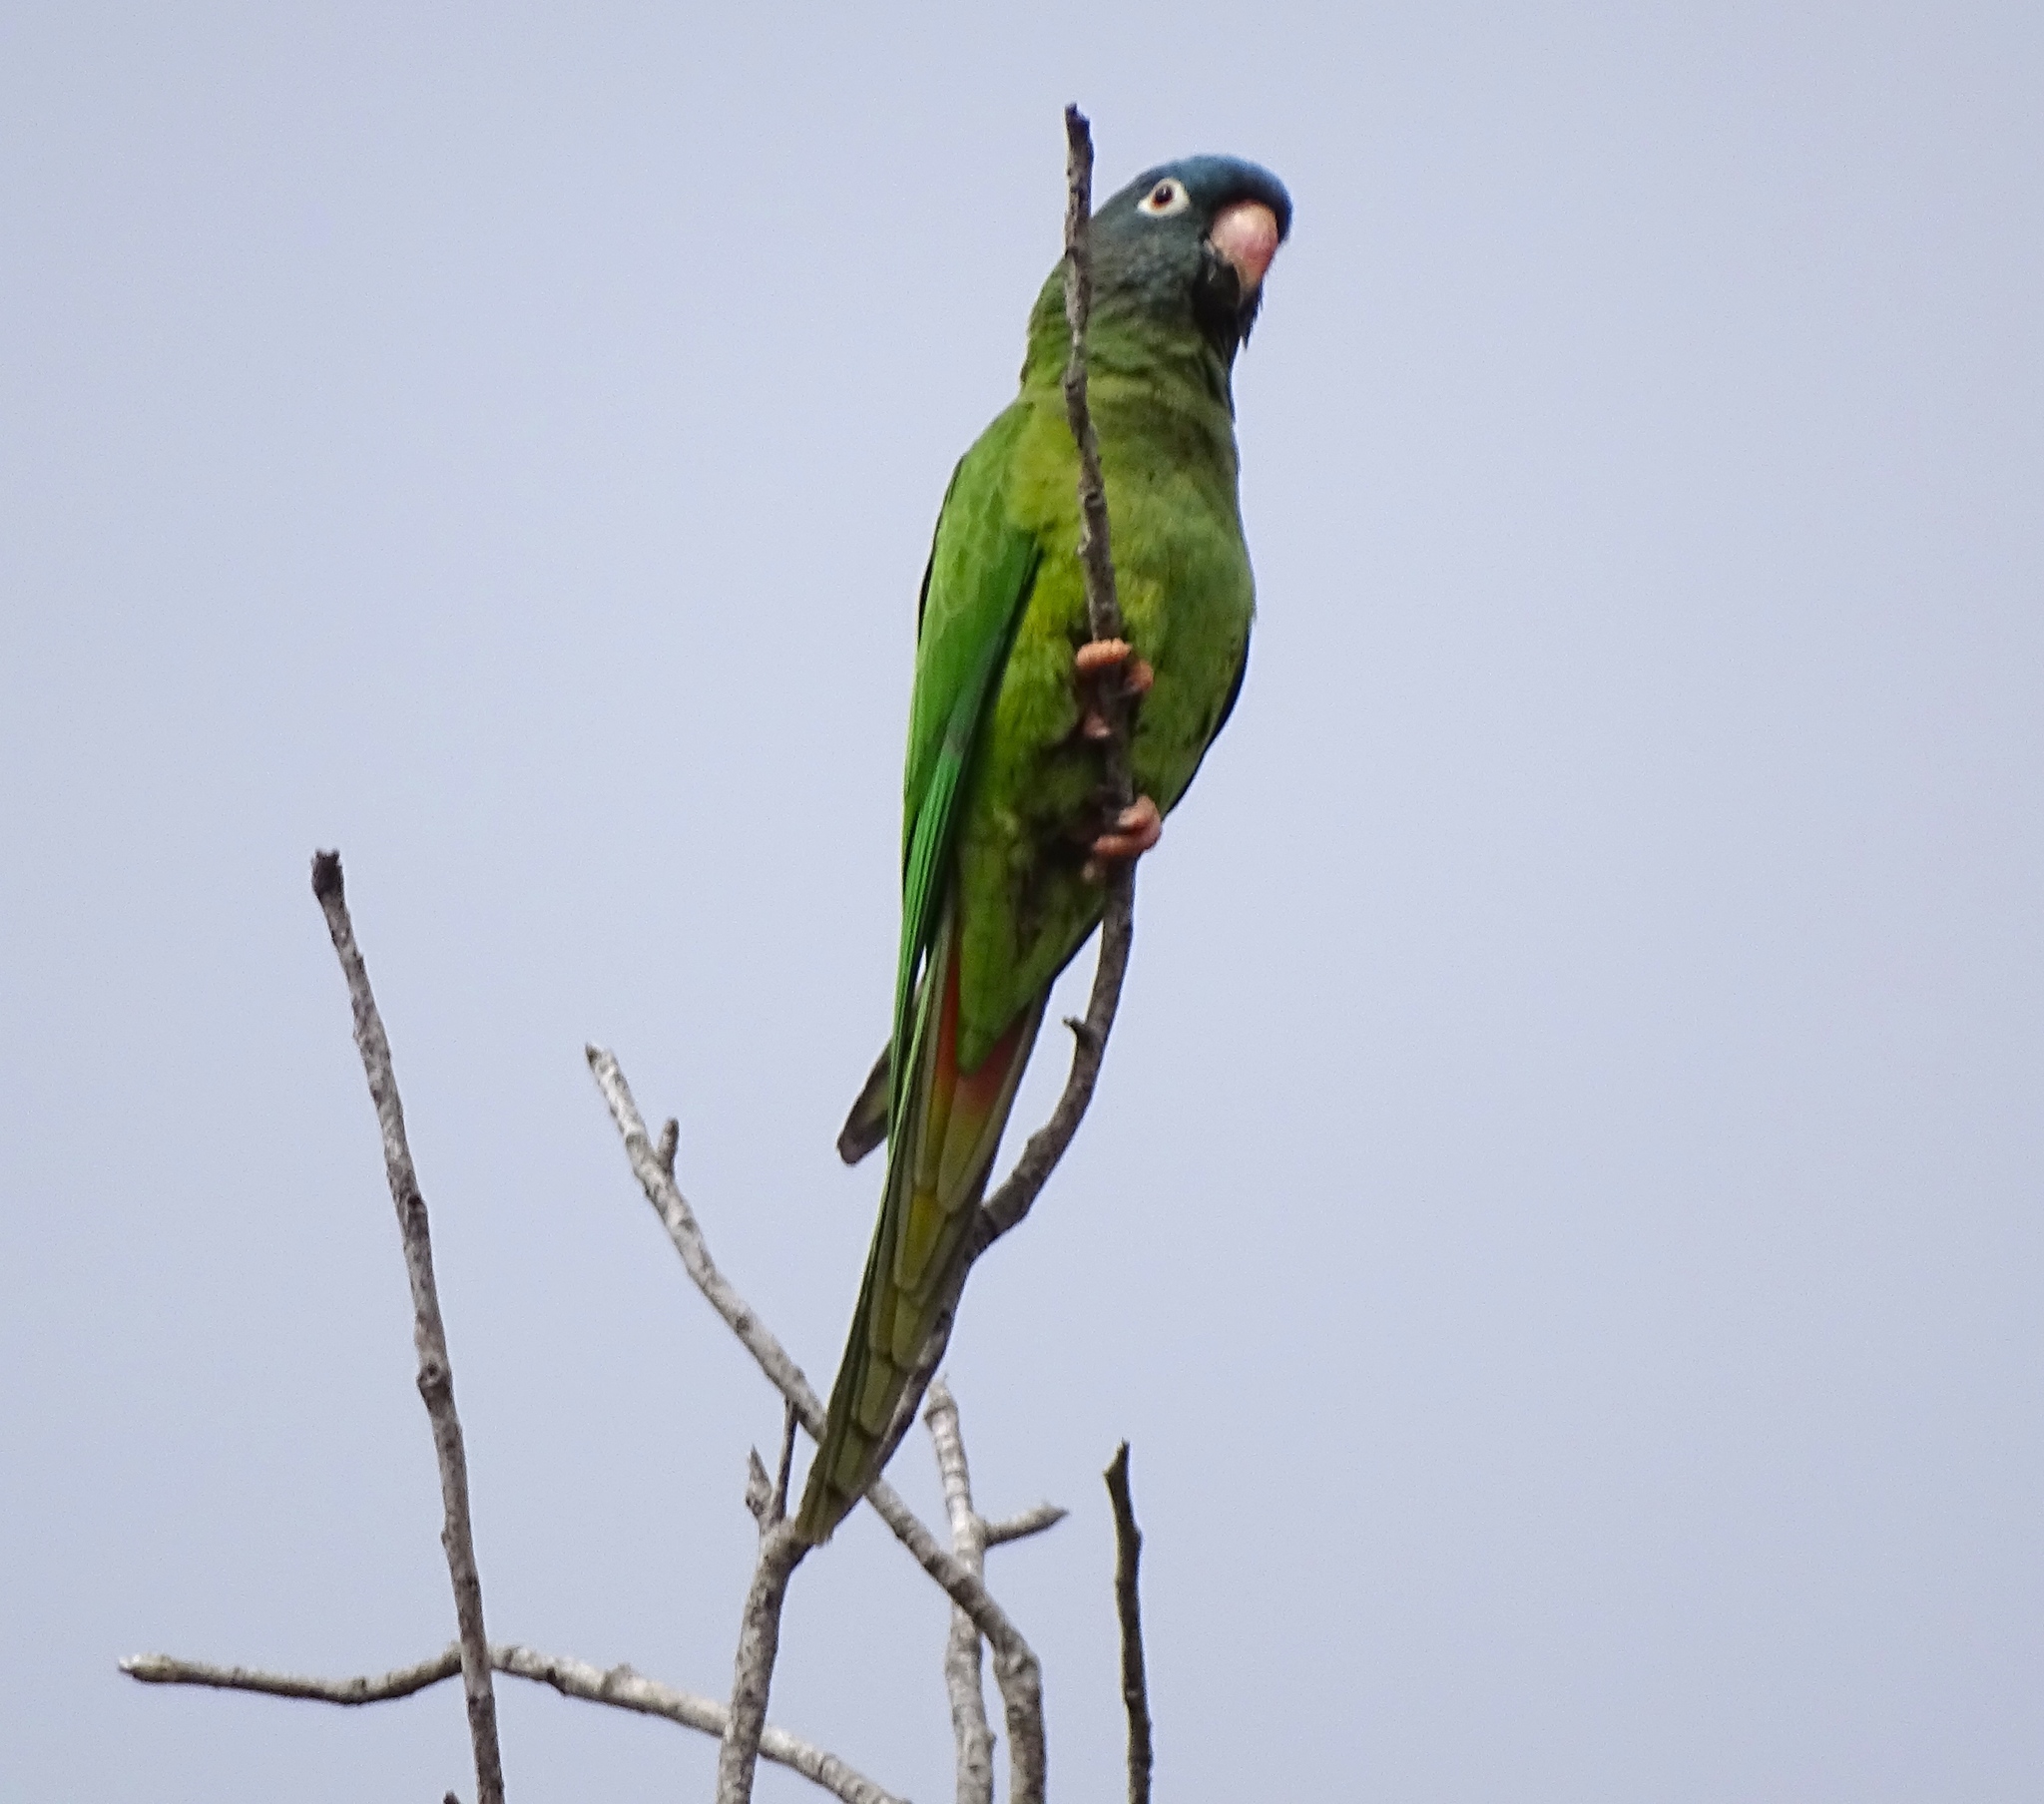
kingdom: Animalia
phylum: Chordata
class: Aves
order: Psittaciformes
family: Psittacidae
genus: Aratinga
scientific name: Aratinga acuticaudata
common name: Blue-crowned parakeet
